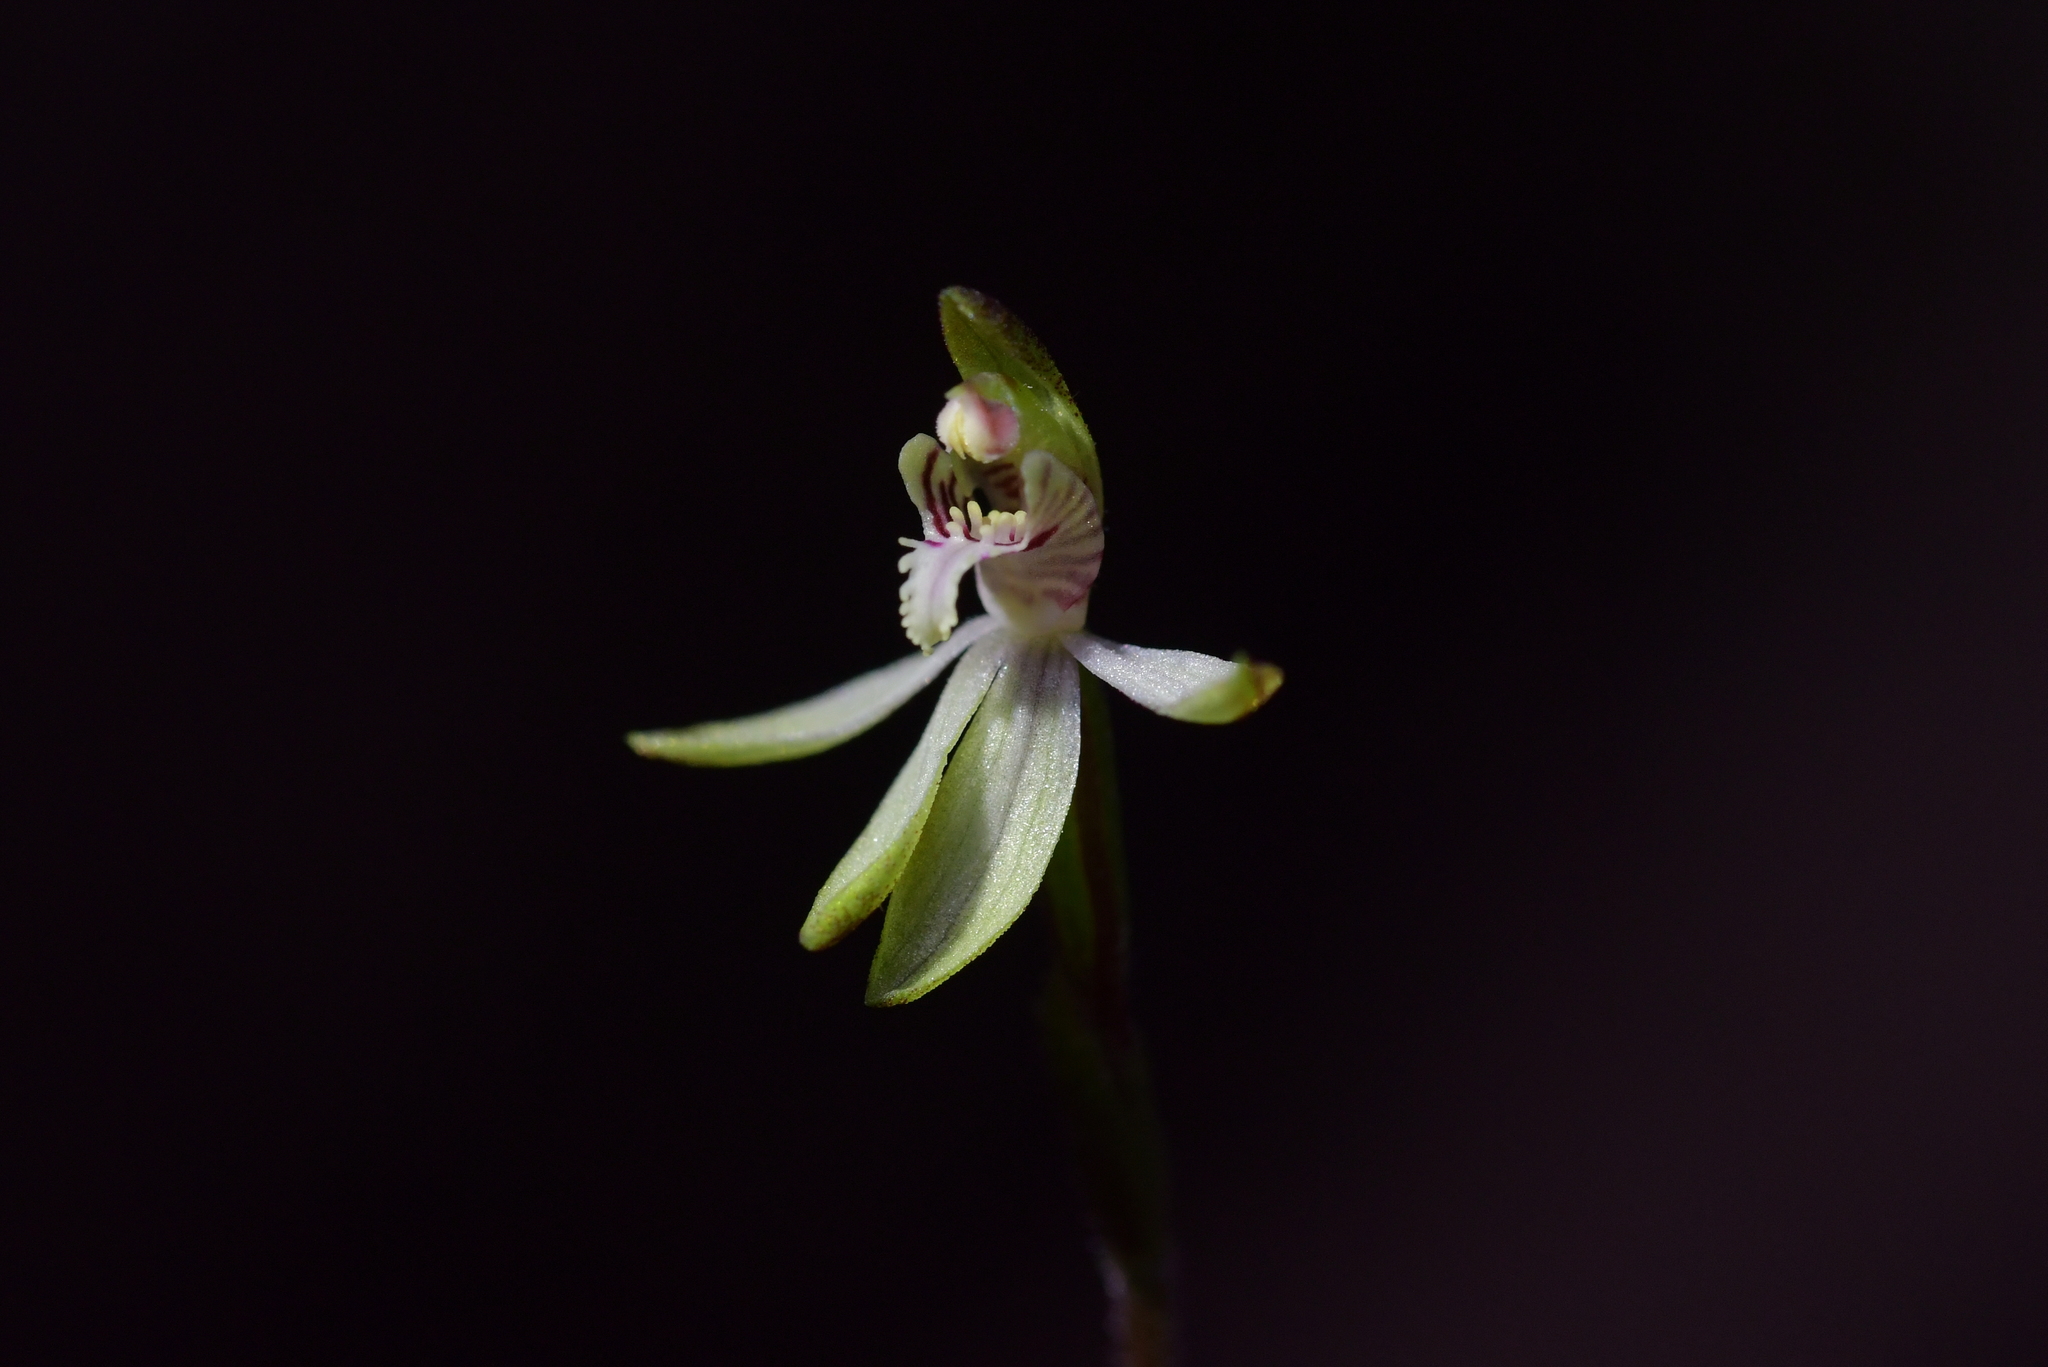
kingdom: Plantae
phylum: Tracheophyta
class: Liliopsida
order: Asparagales
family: Orchidaceae
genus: Caladenia
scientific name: Caladenia chlorostyla
